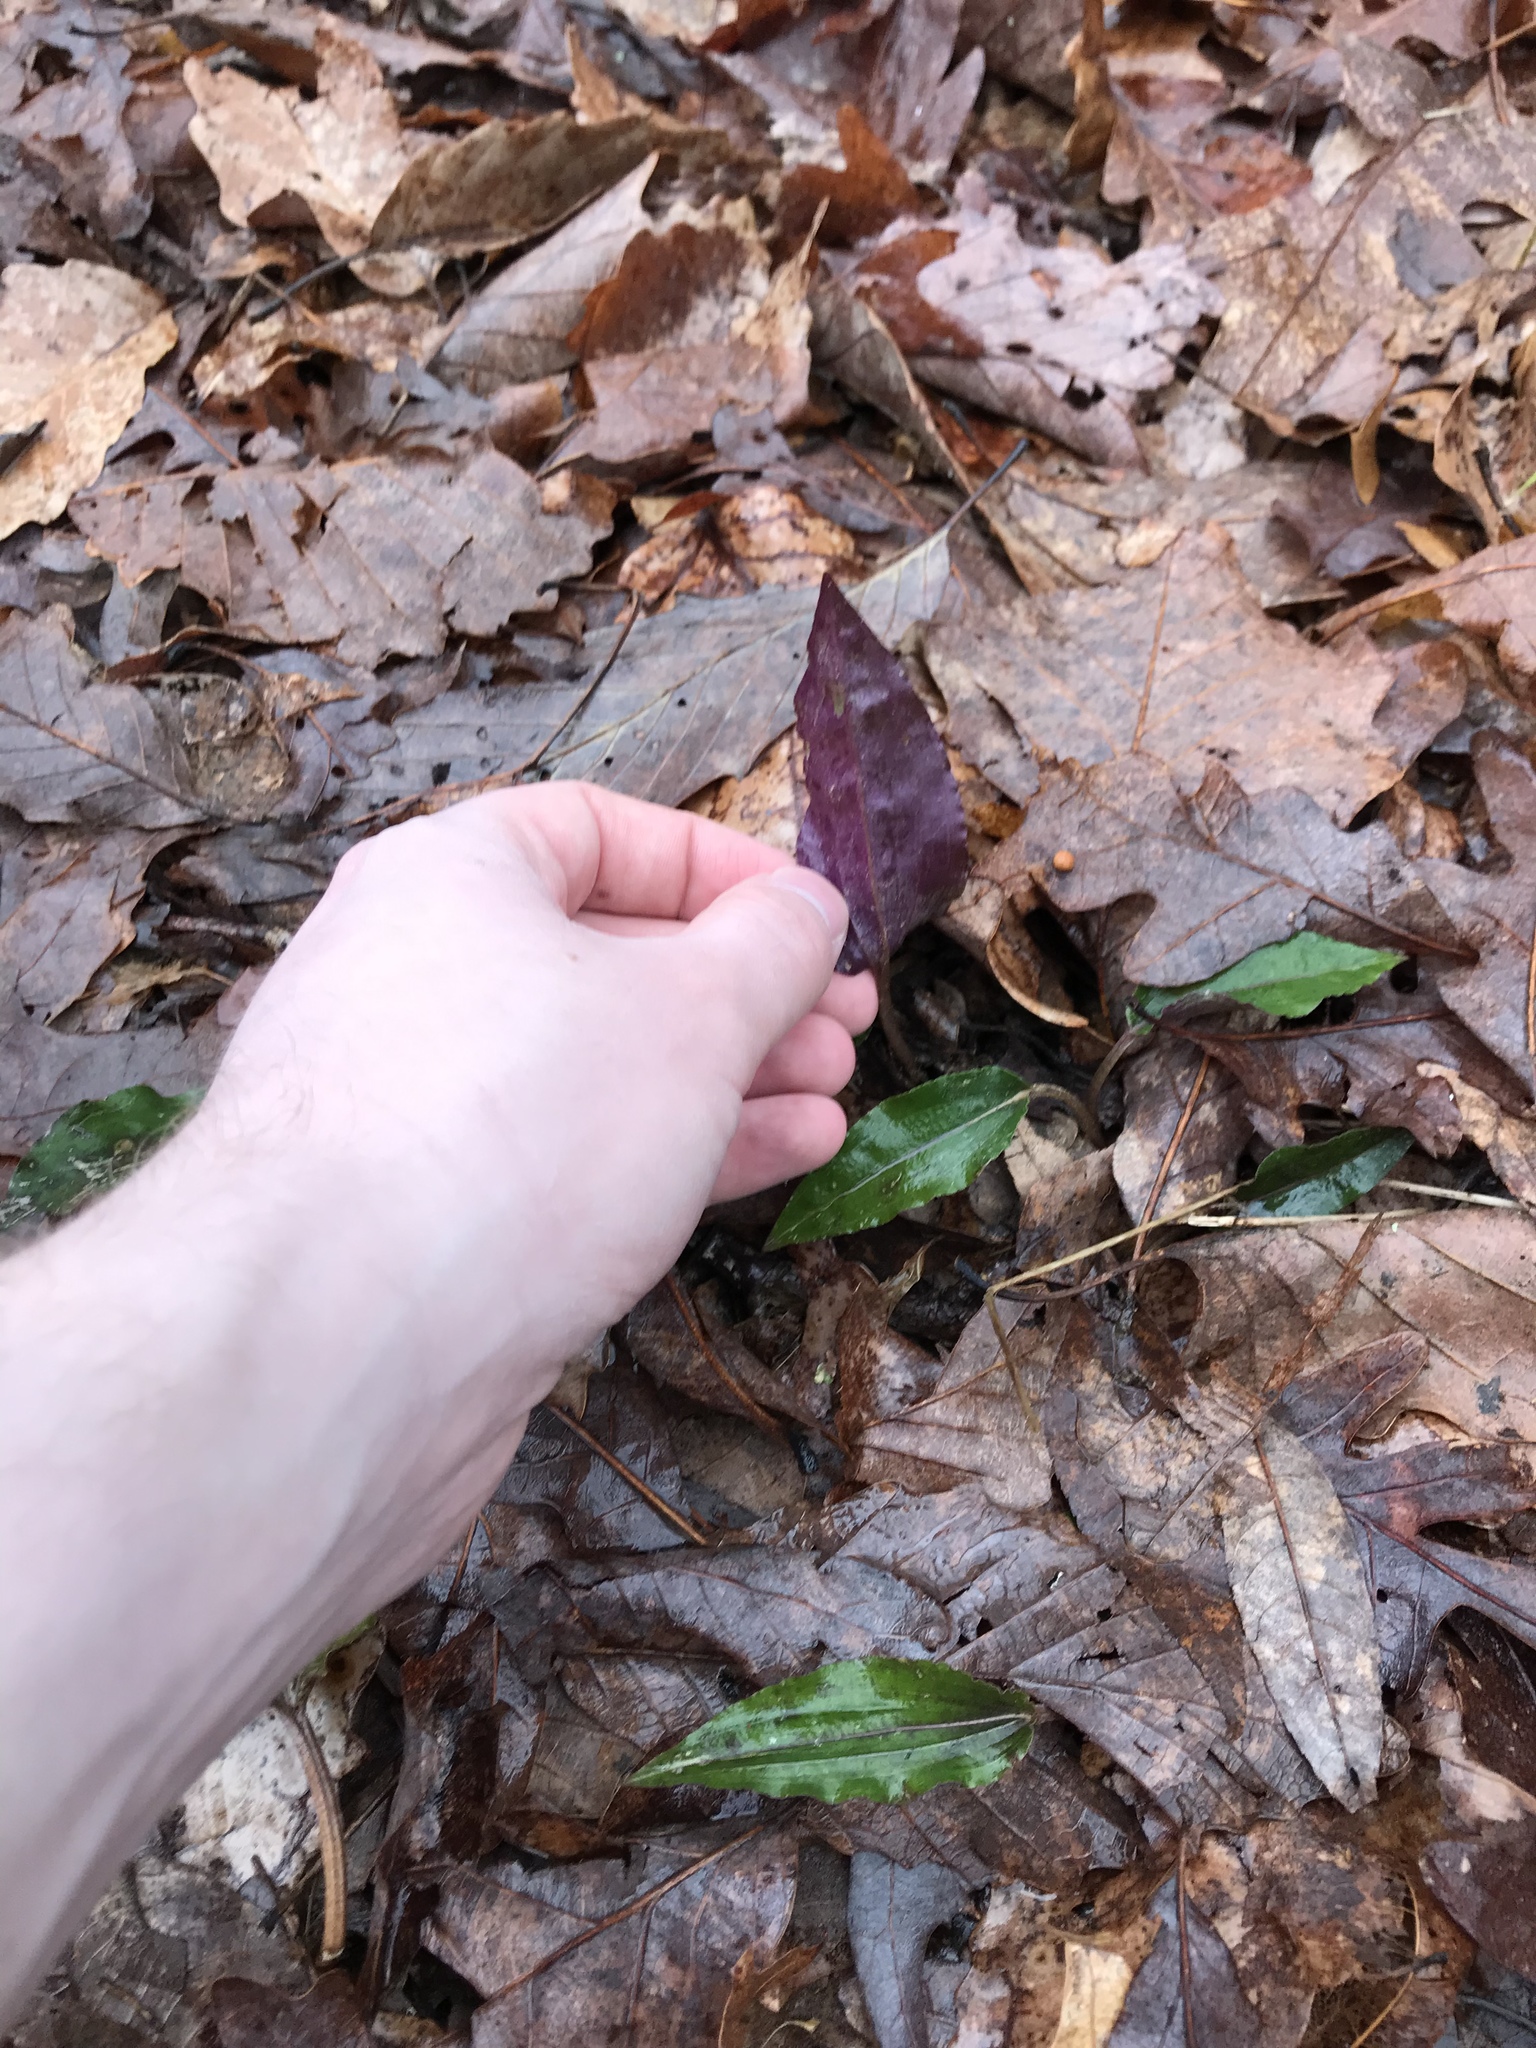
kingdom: Plantae
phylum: Tracheophyta
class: Liliopsida
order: Asparagales
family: Orchidaceae
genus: Tipularia
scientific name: Tipularia discolor
